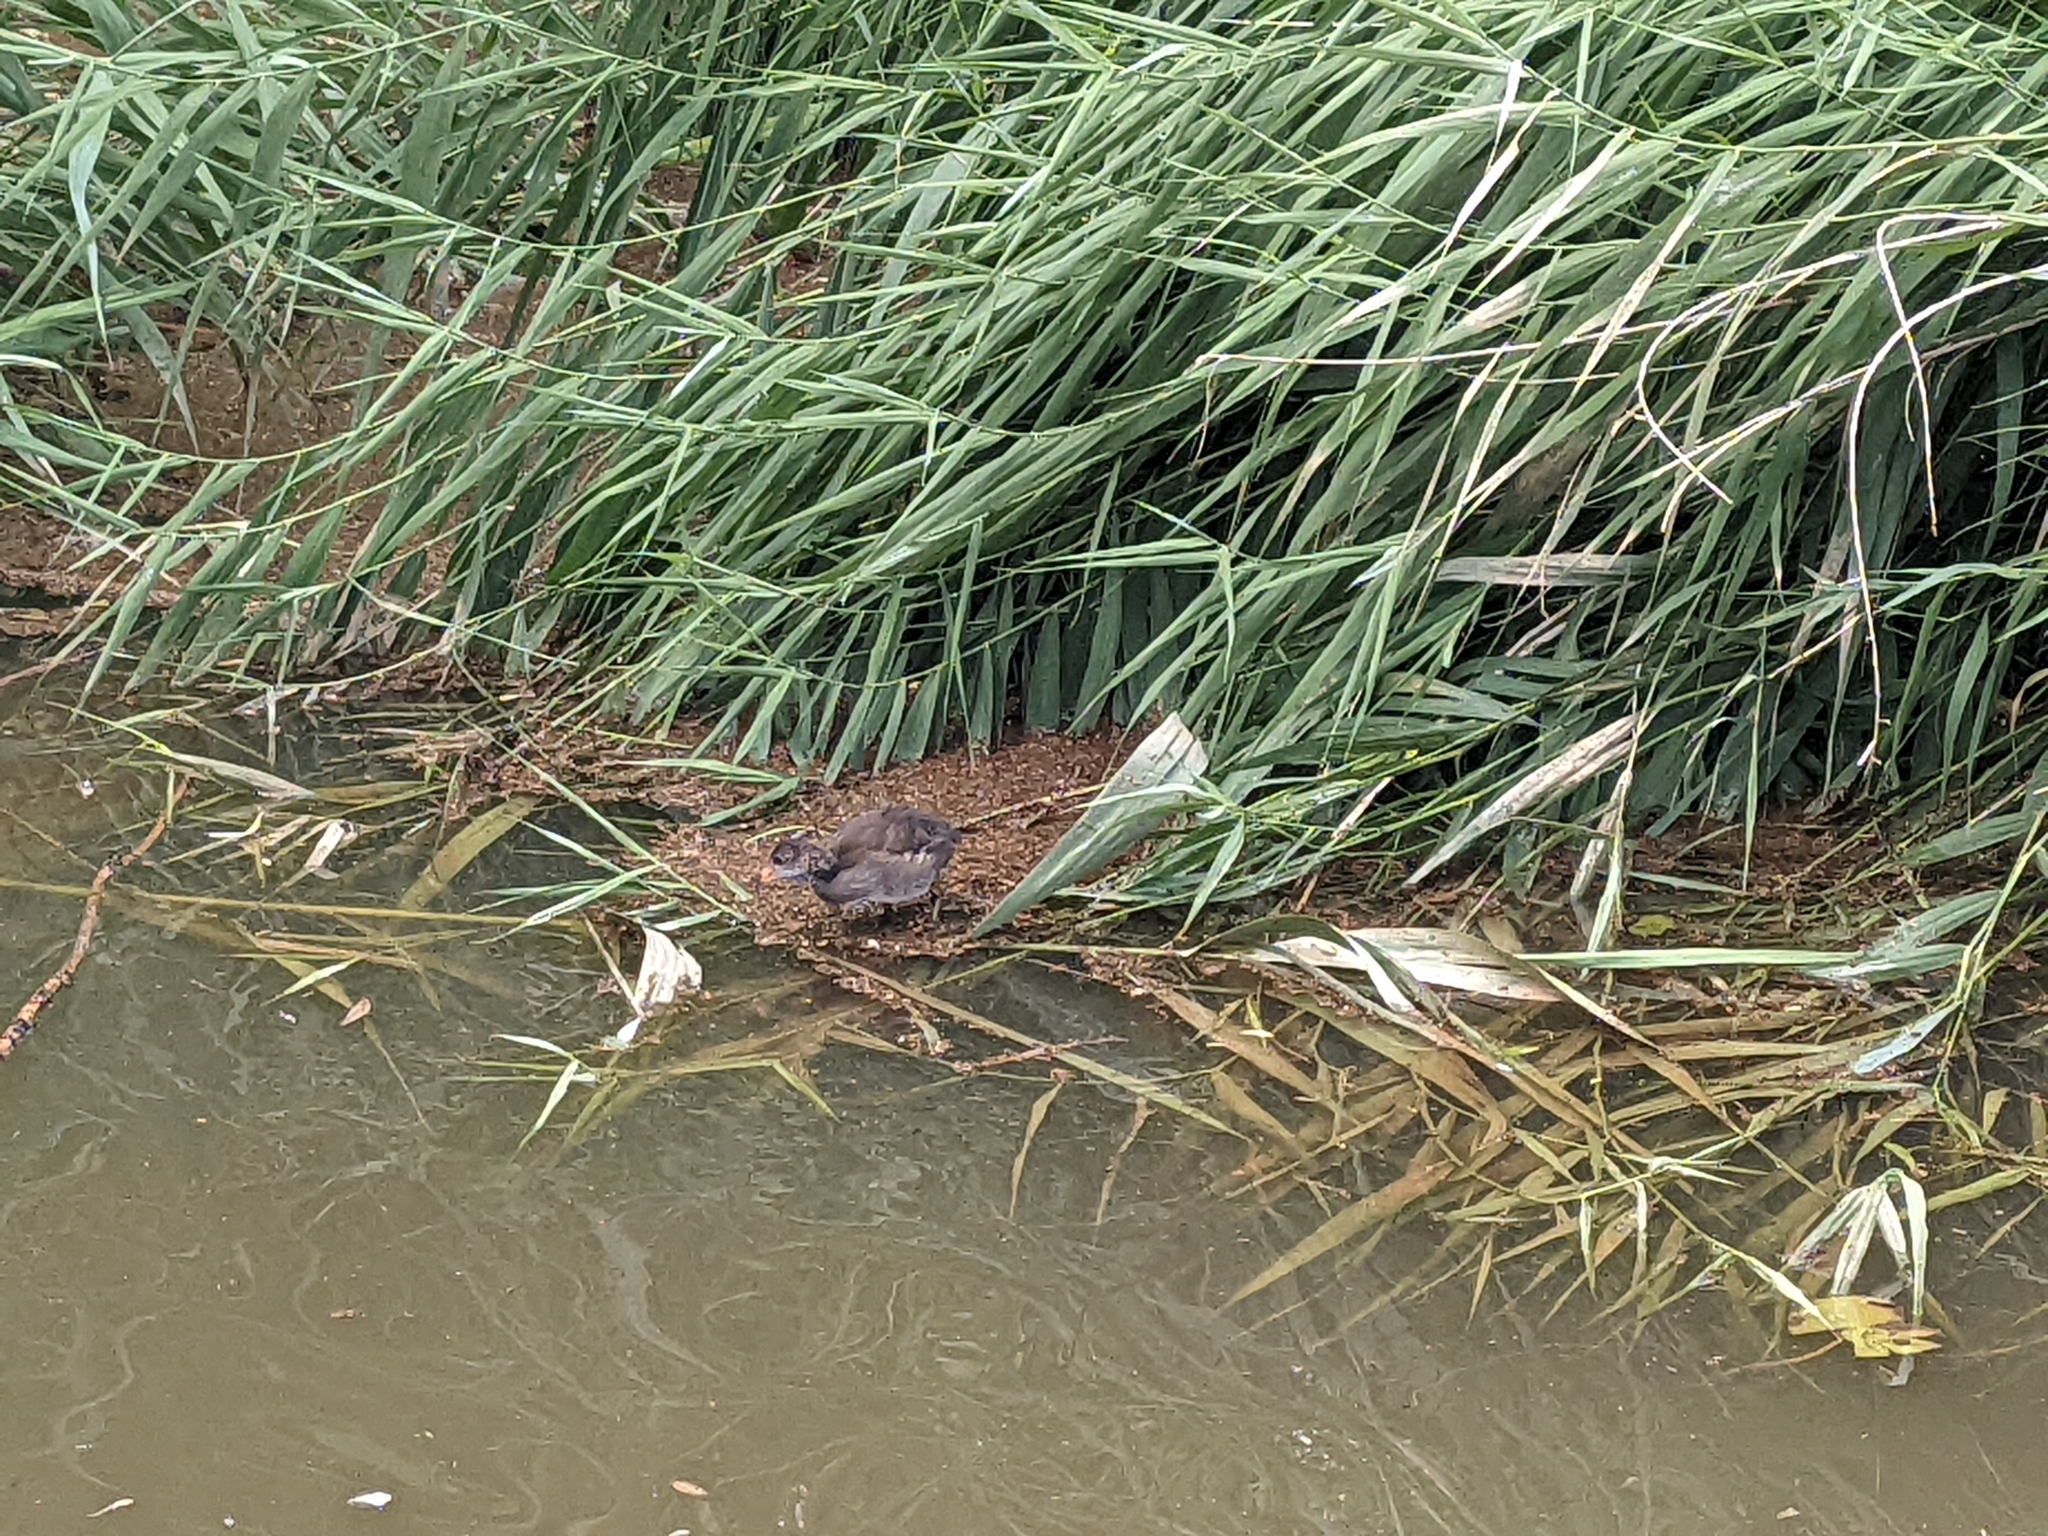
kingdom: Animalia
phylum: Chordata
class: Aves
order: Gruiformes
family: Rallidae
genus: Gallinula
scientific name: Gallinula chloropus
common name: Common moorhen
